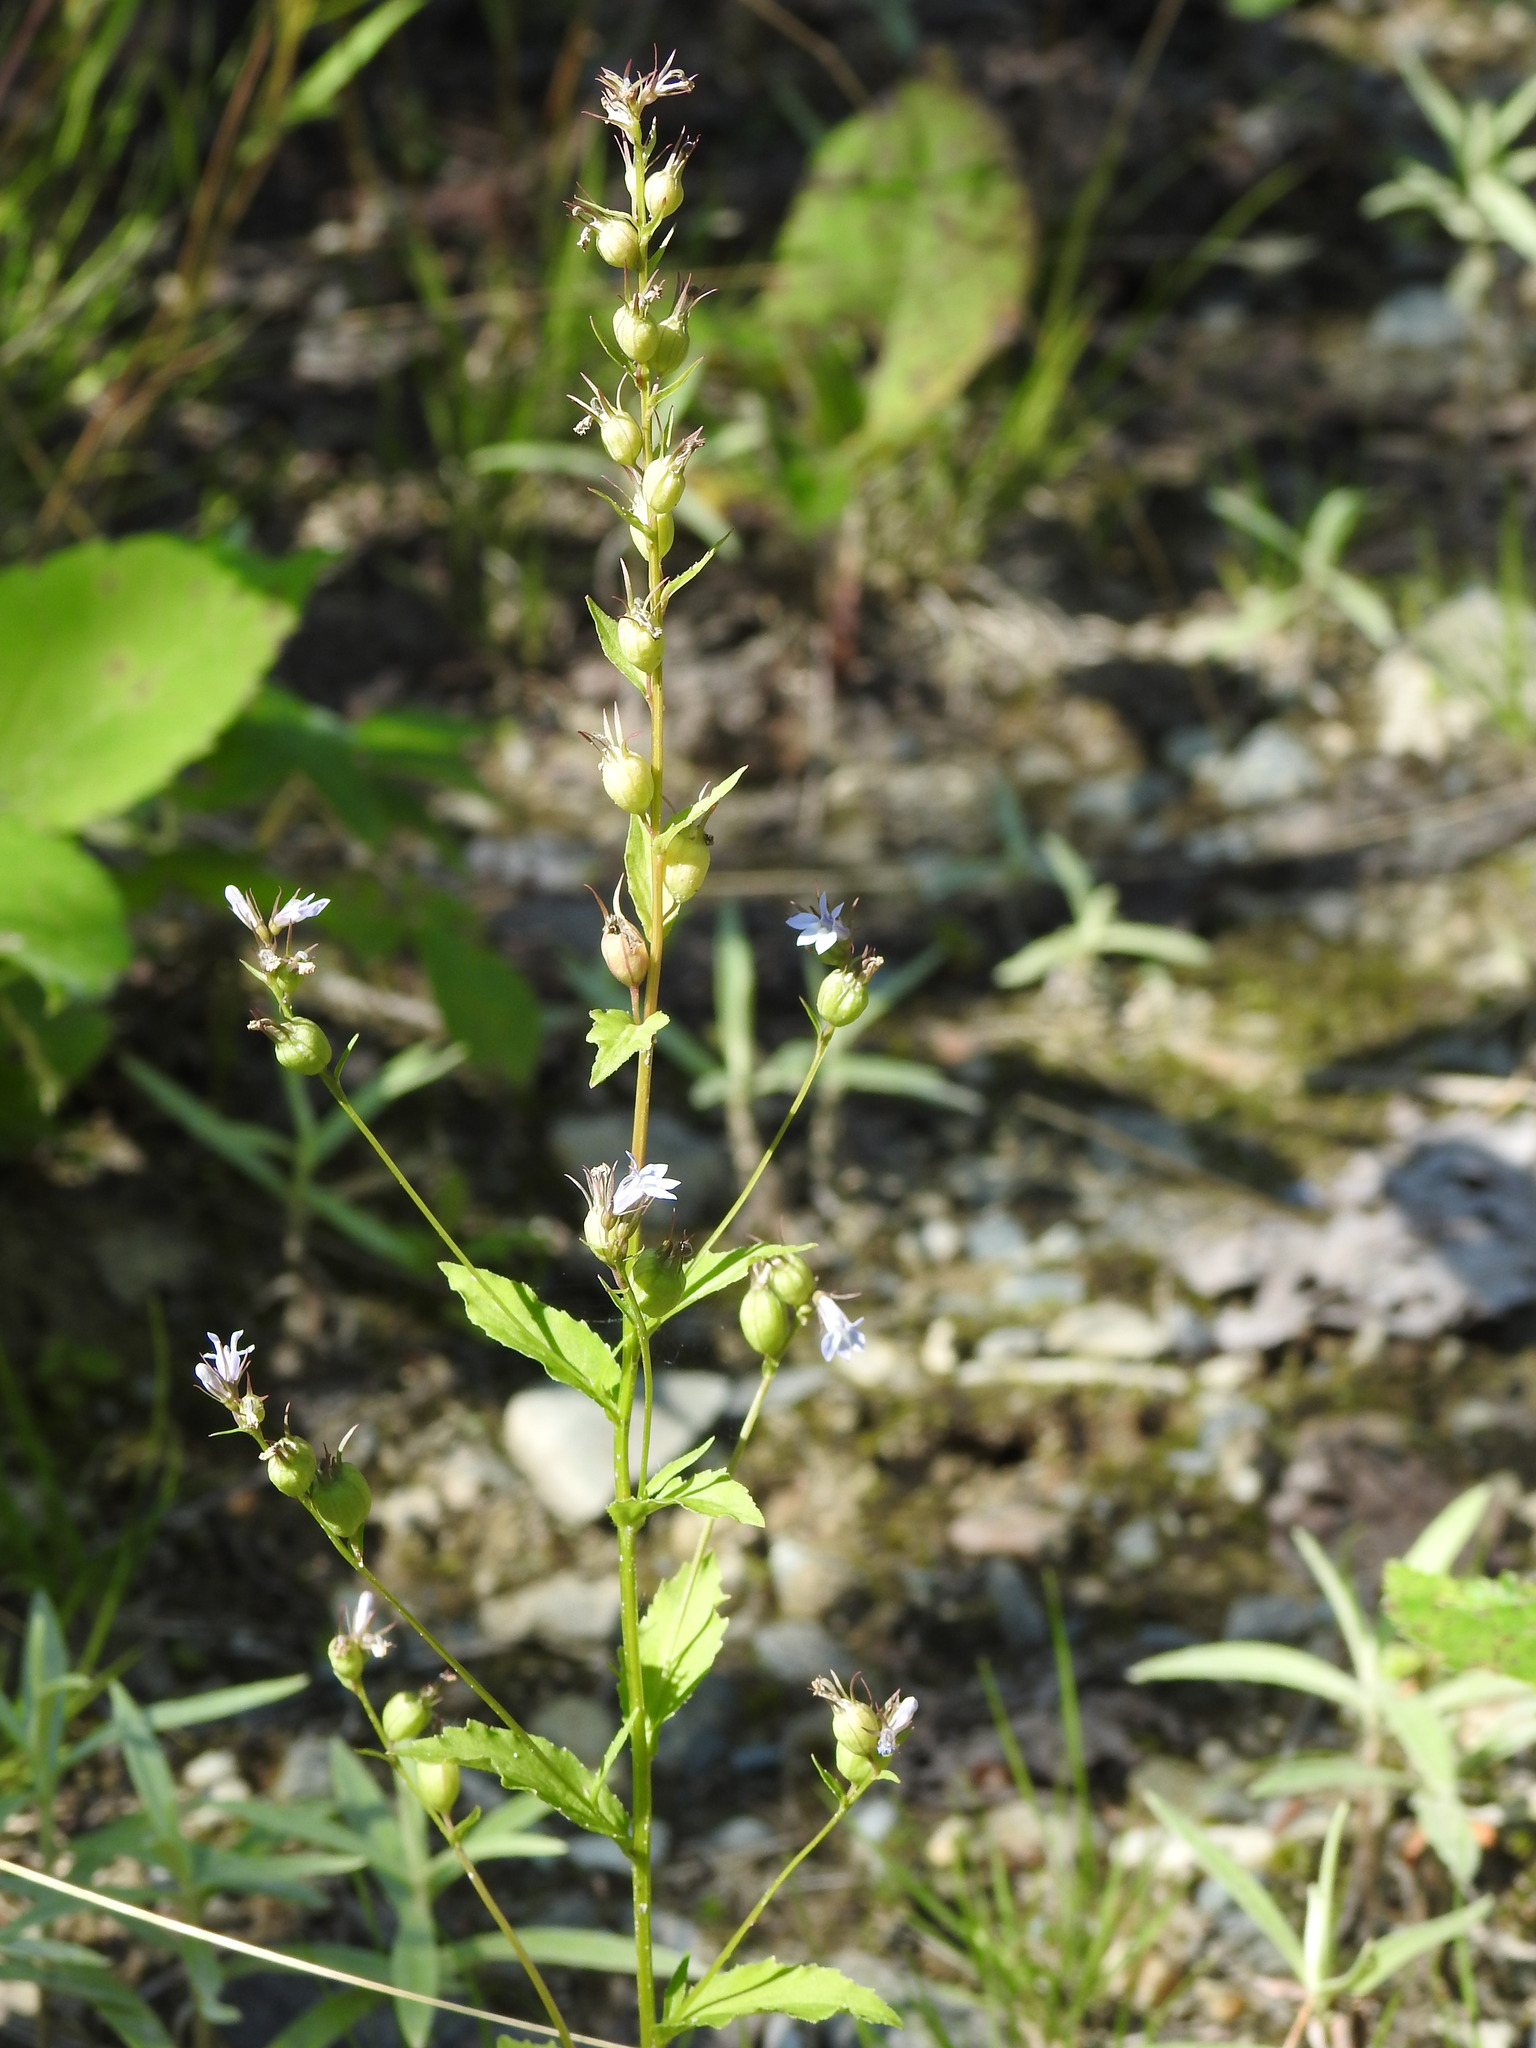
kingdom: Plantae
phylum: Tracheophyta
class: Magnoliopsida
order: Asterales
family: Campanulaceae
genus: Lobelia
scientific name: Lobelia inflata
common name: Indian tobacco
